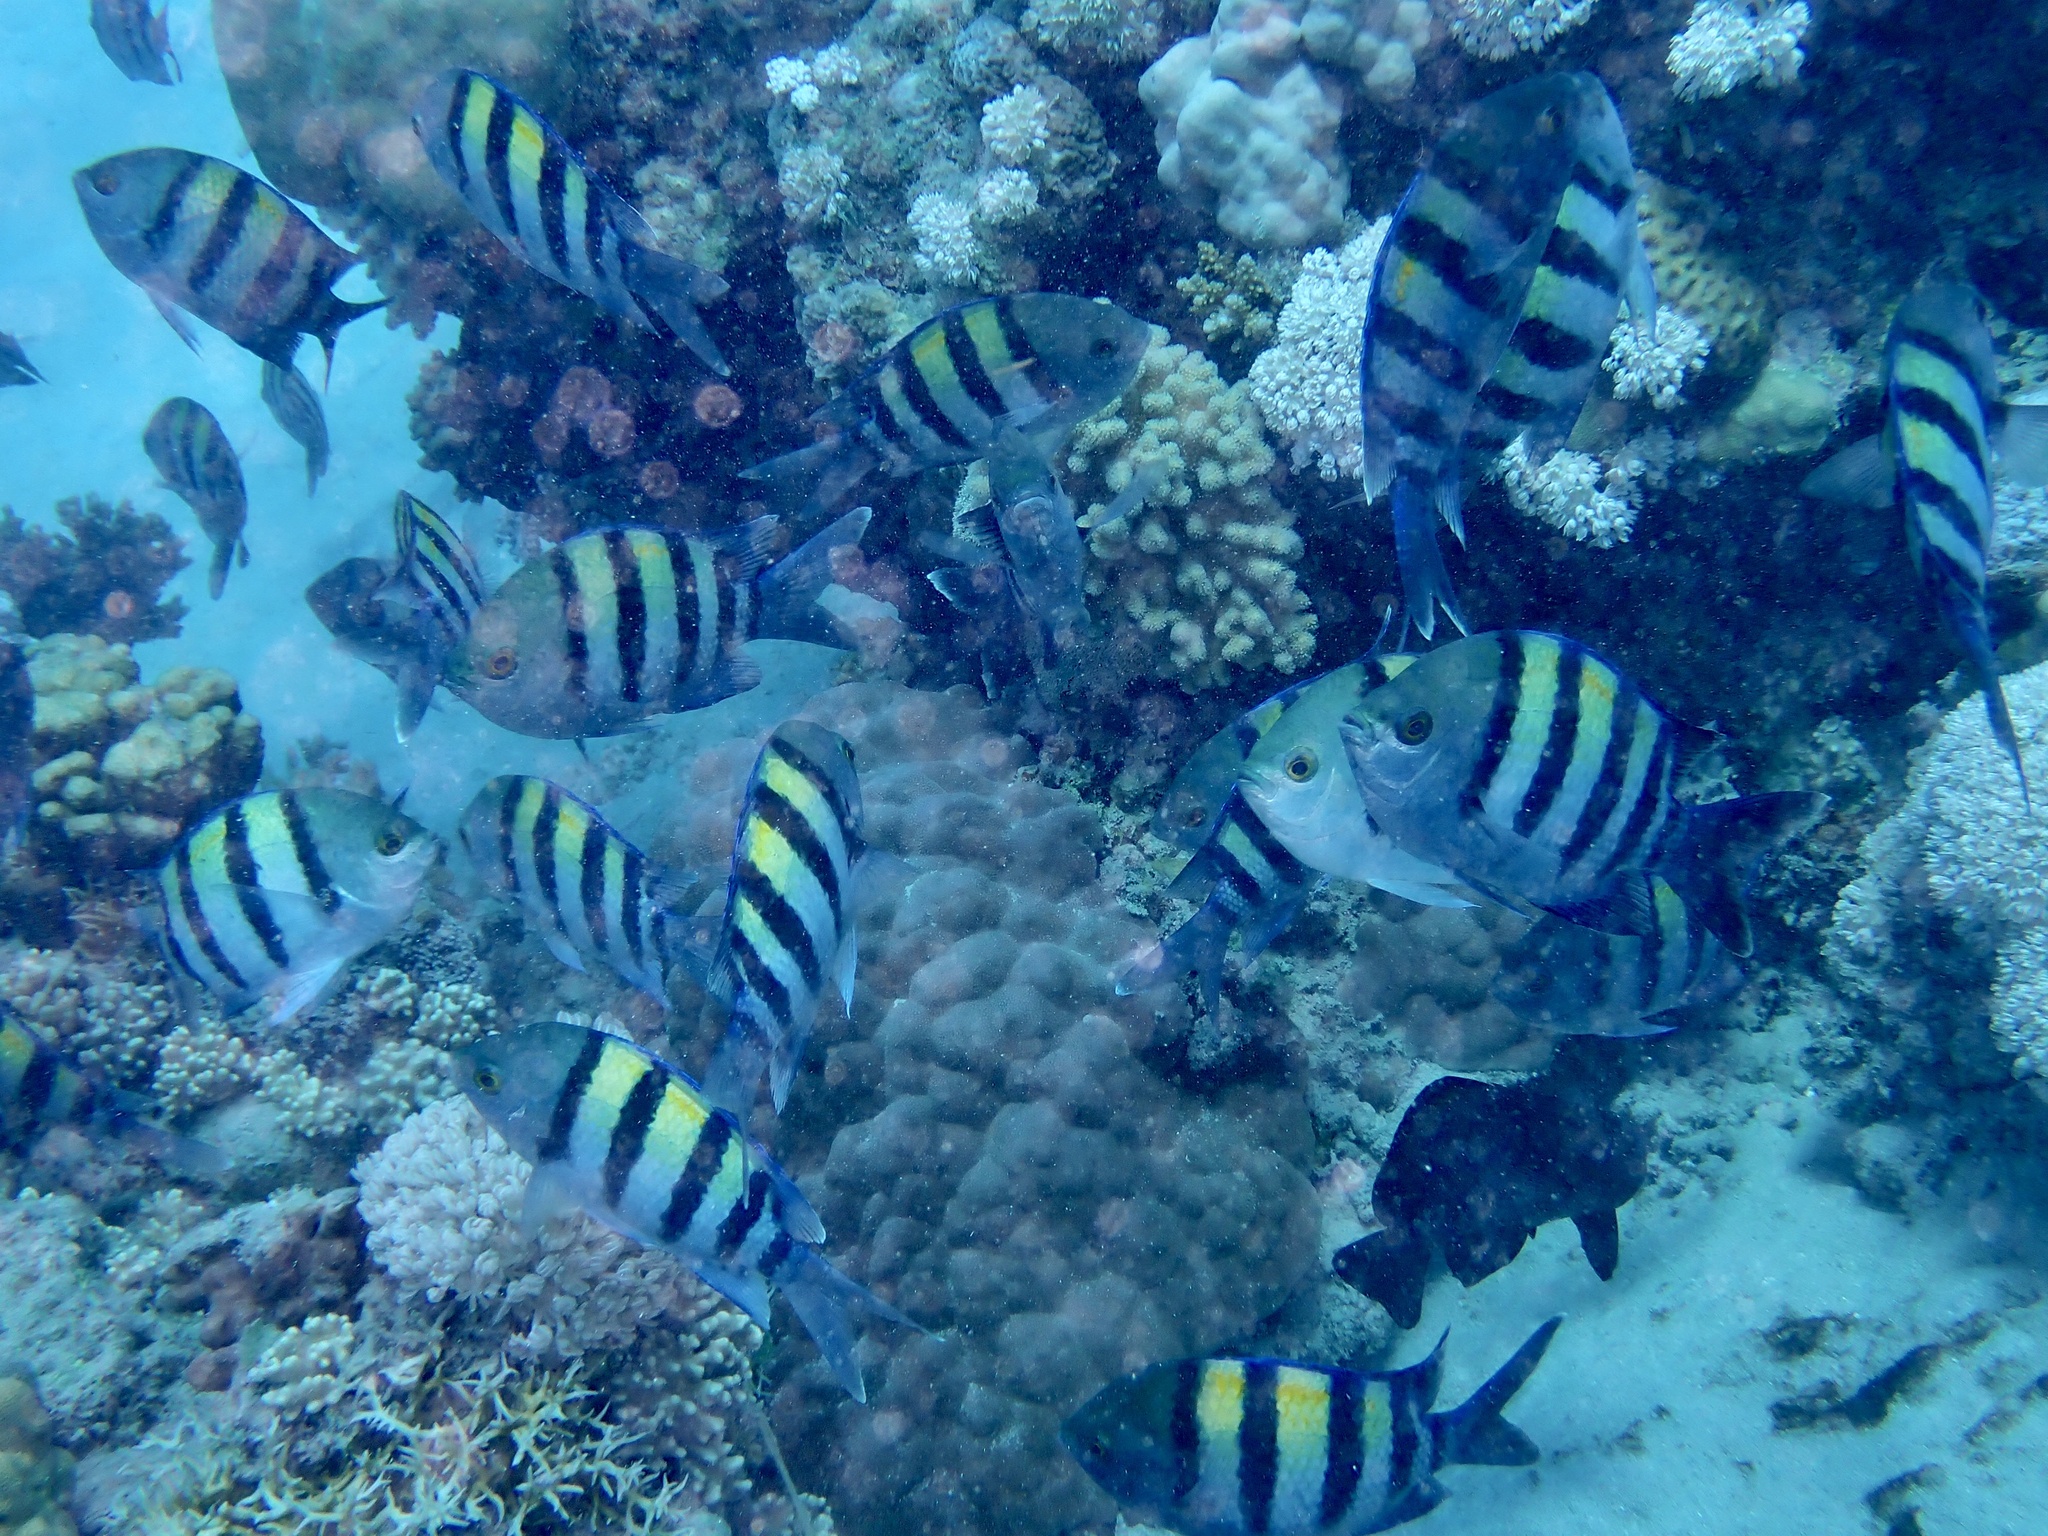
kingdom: Animalia
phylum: Chordata
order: Perciformes
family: Pomacentridae
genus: Abudefduf
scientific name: Abudefduf vaigiensis
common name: Indo-pacific sergeant
